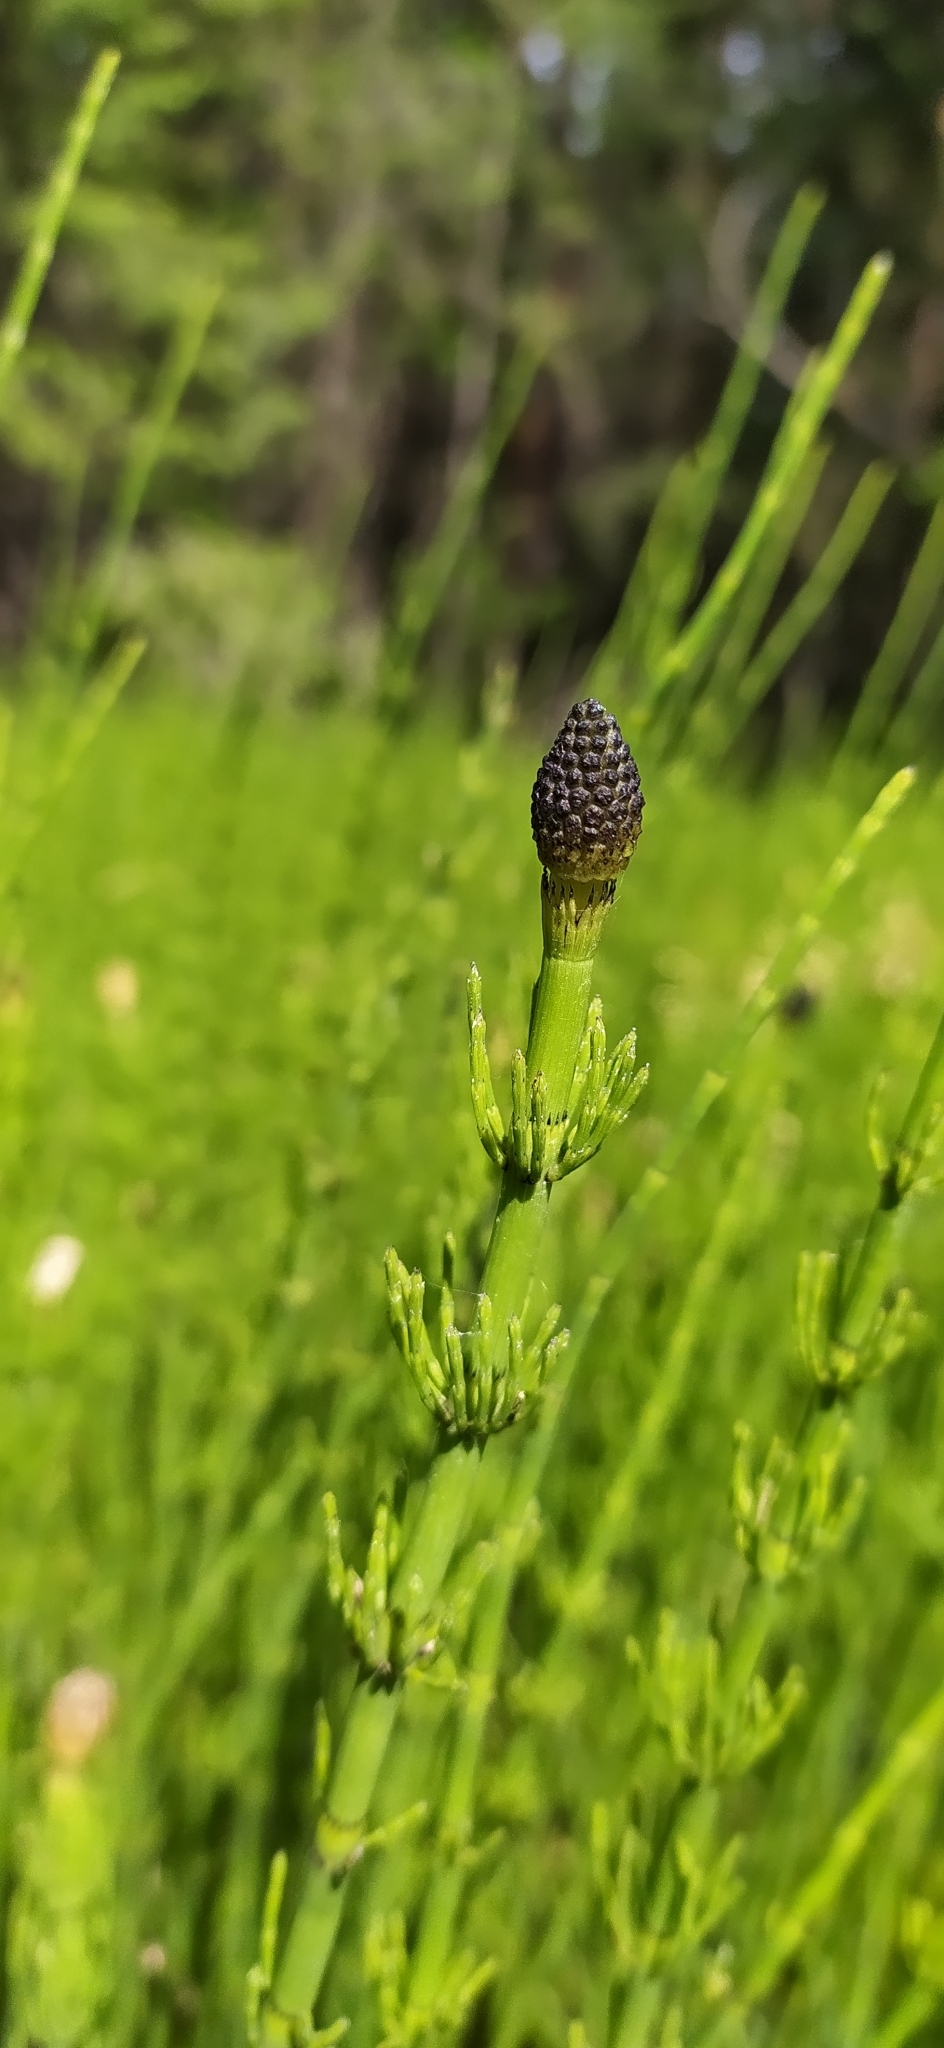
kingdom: Plantae
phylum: Tracheophyta
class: Polypodiopsida
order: Equisetales
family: Equisetaceae
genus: Equisetum
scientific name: Equisetum fluviatile
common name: Water horsetail
